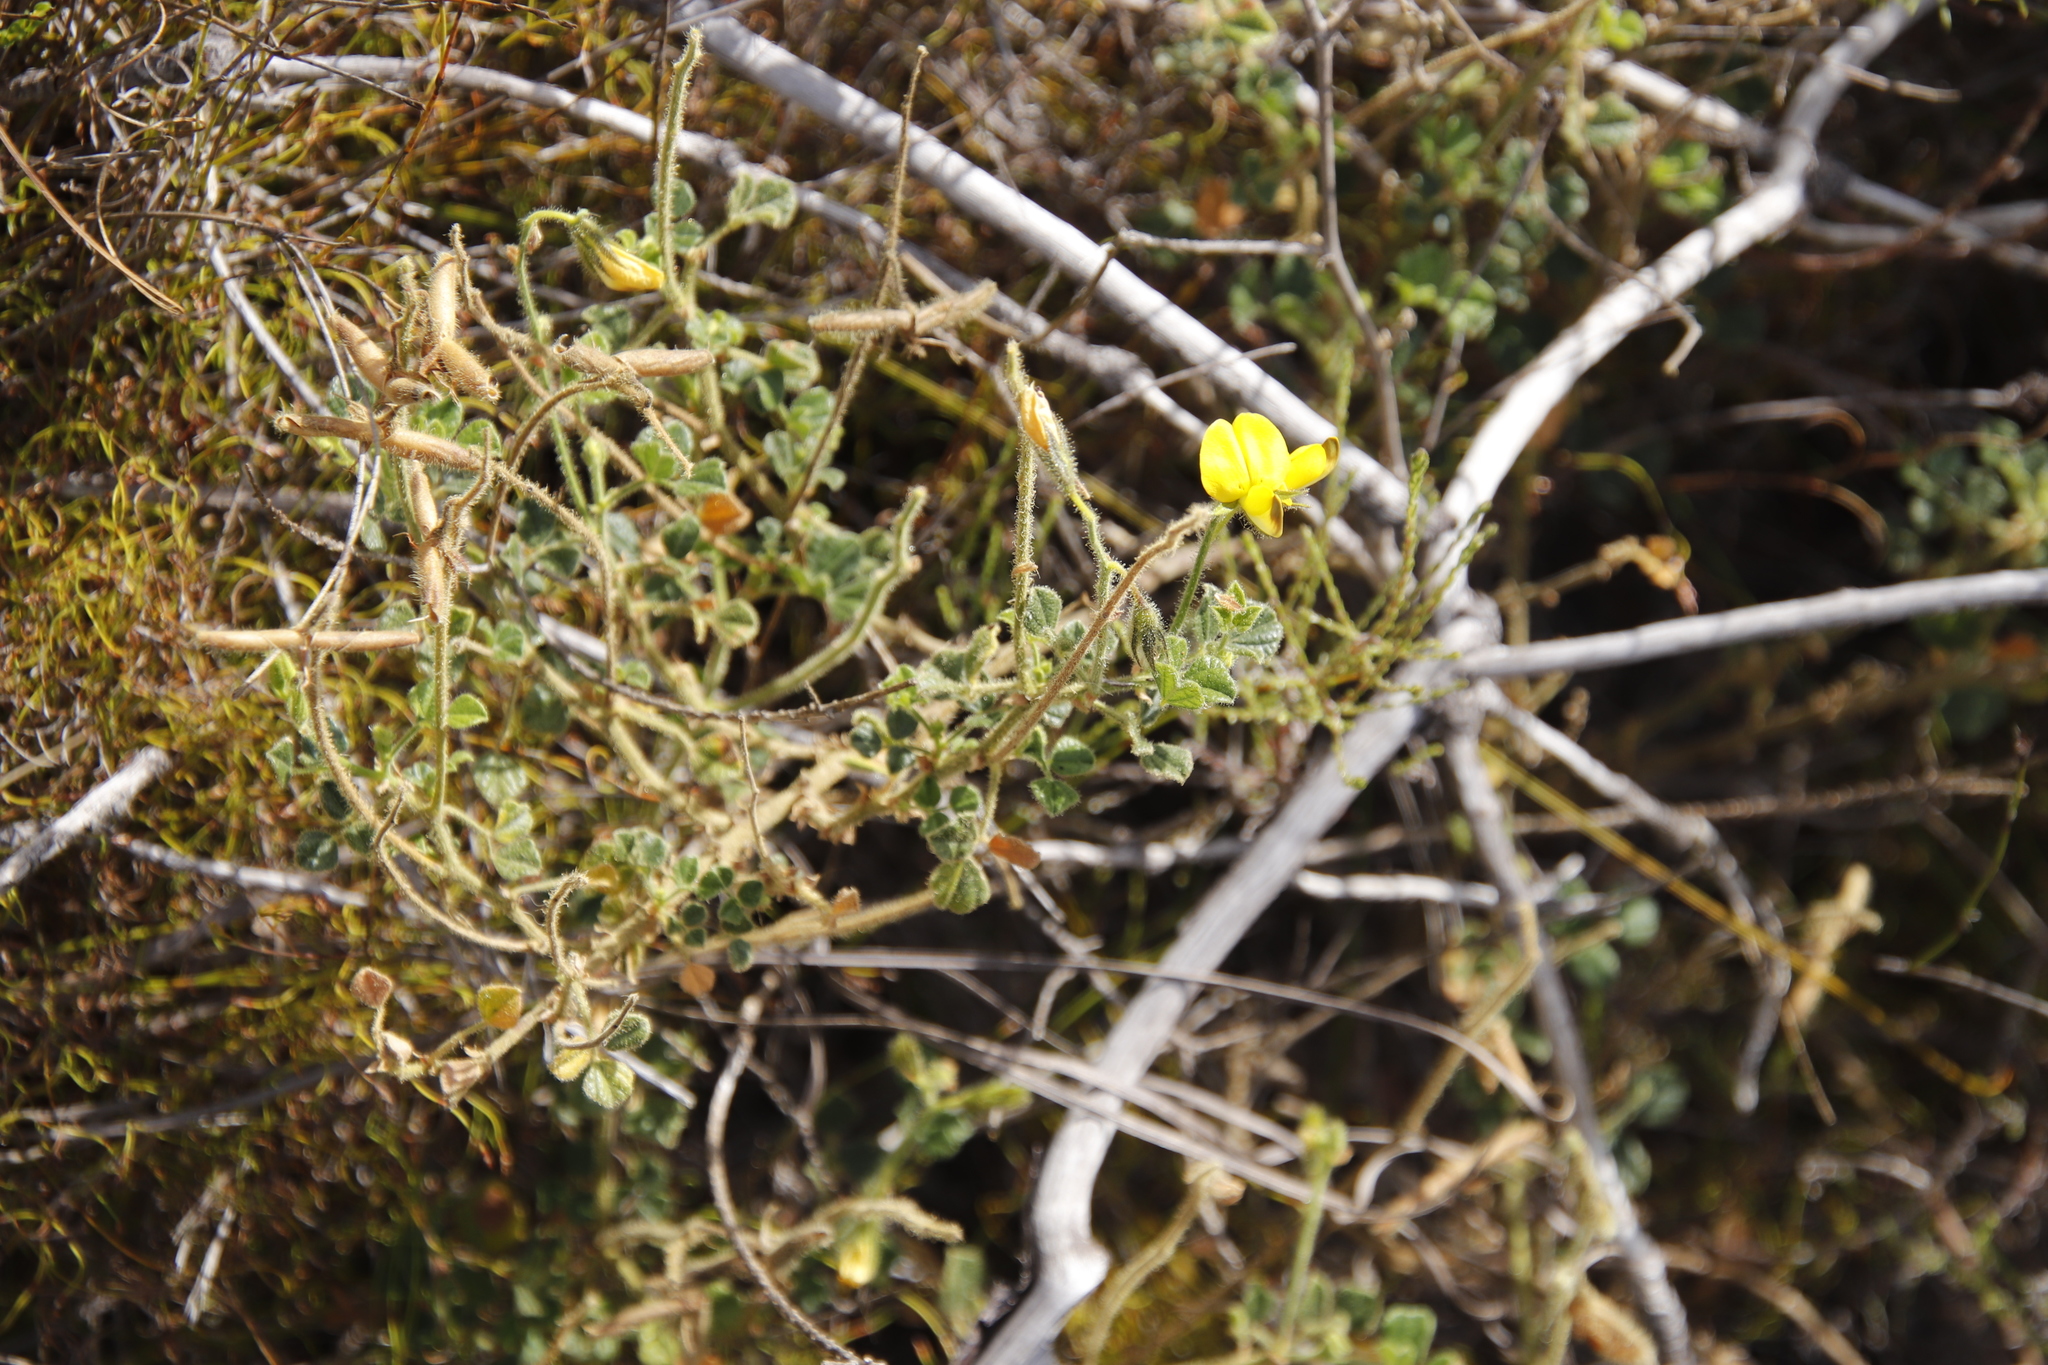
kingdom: Plantae
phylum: Tracheophyta
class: Magnoliopsida
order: Fabales
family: Fabaceae
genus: Bolusafra
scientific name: Bolusafra bituminosa
